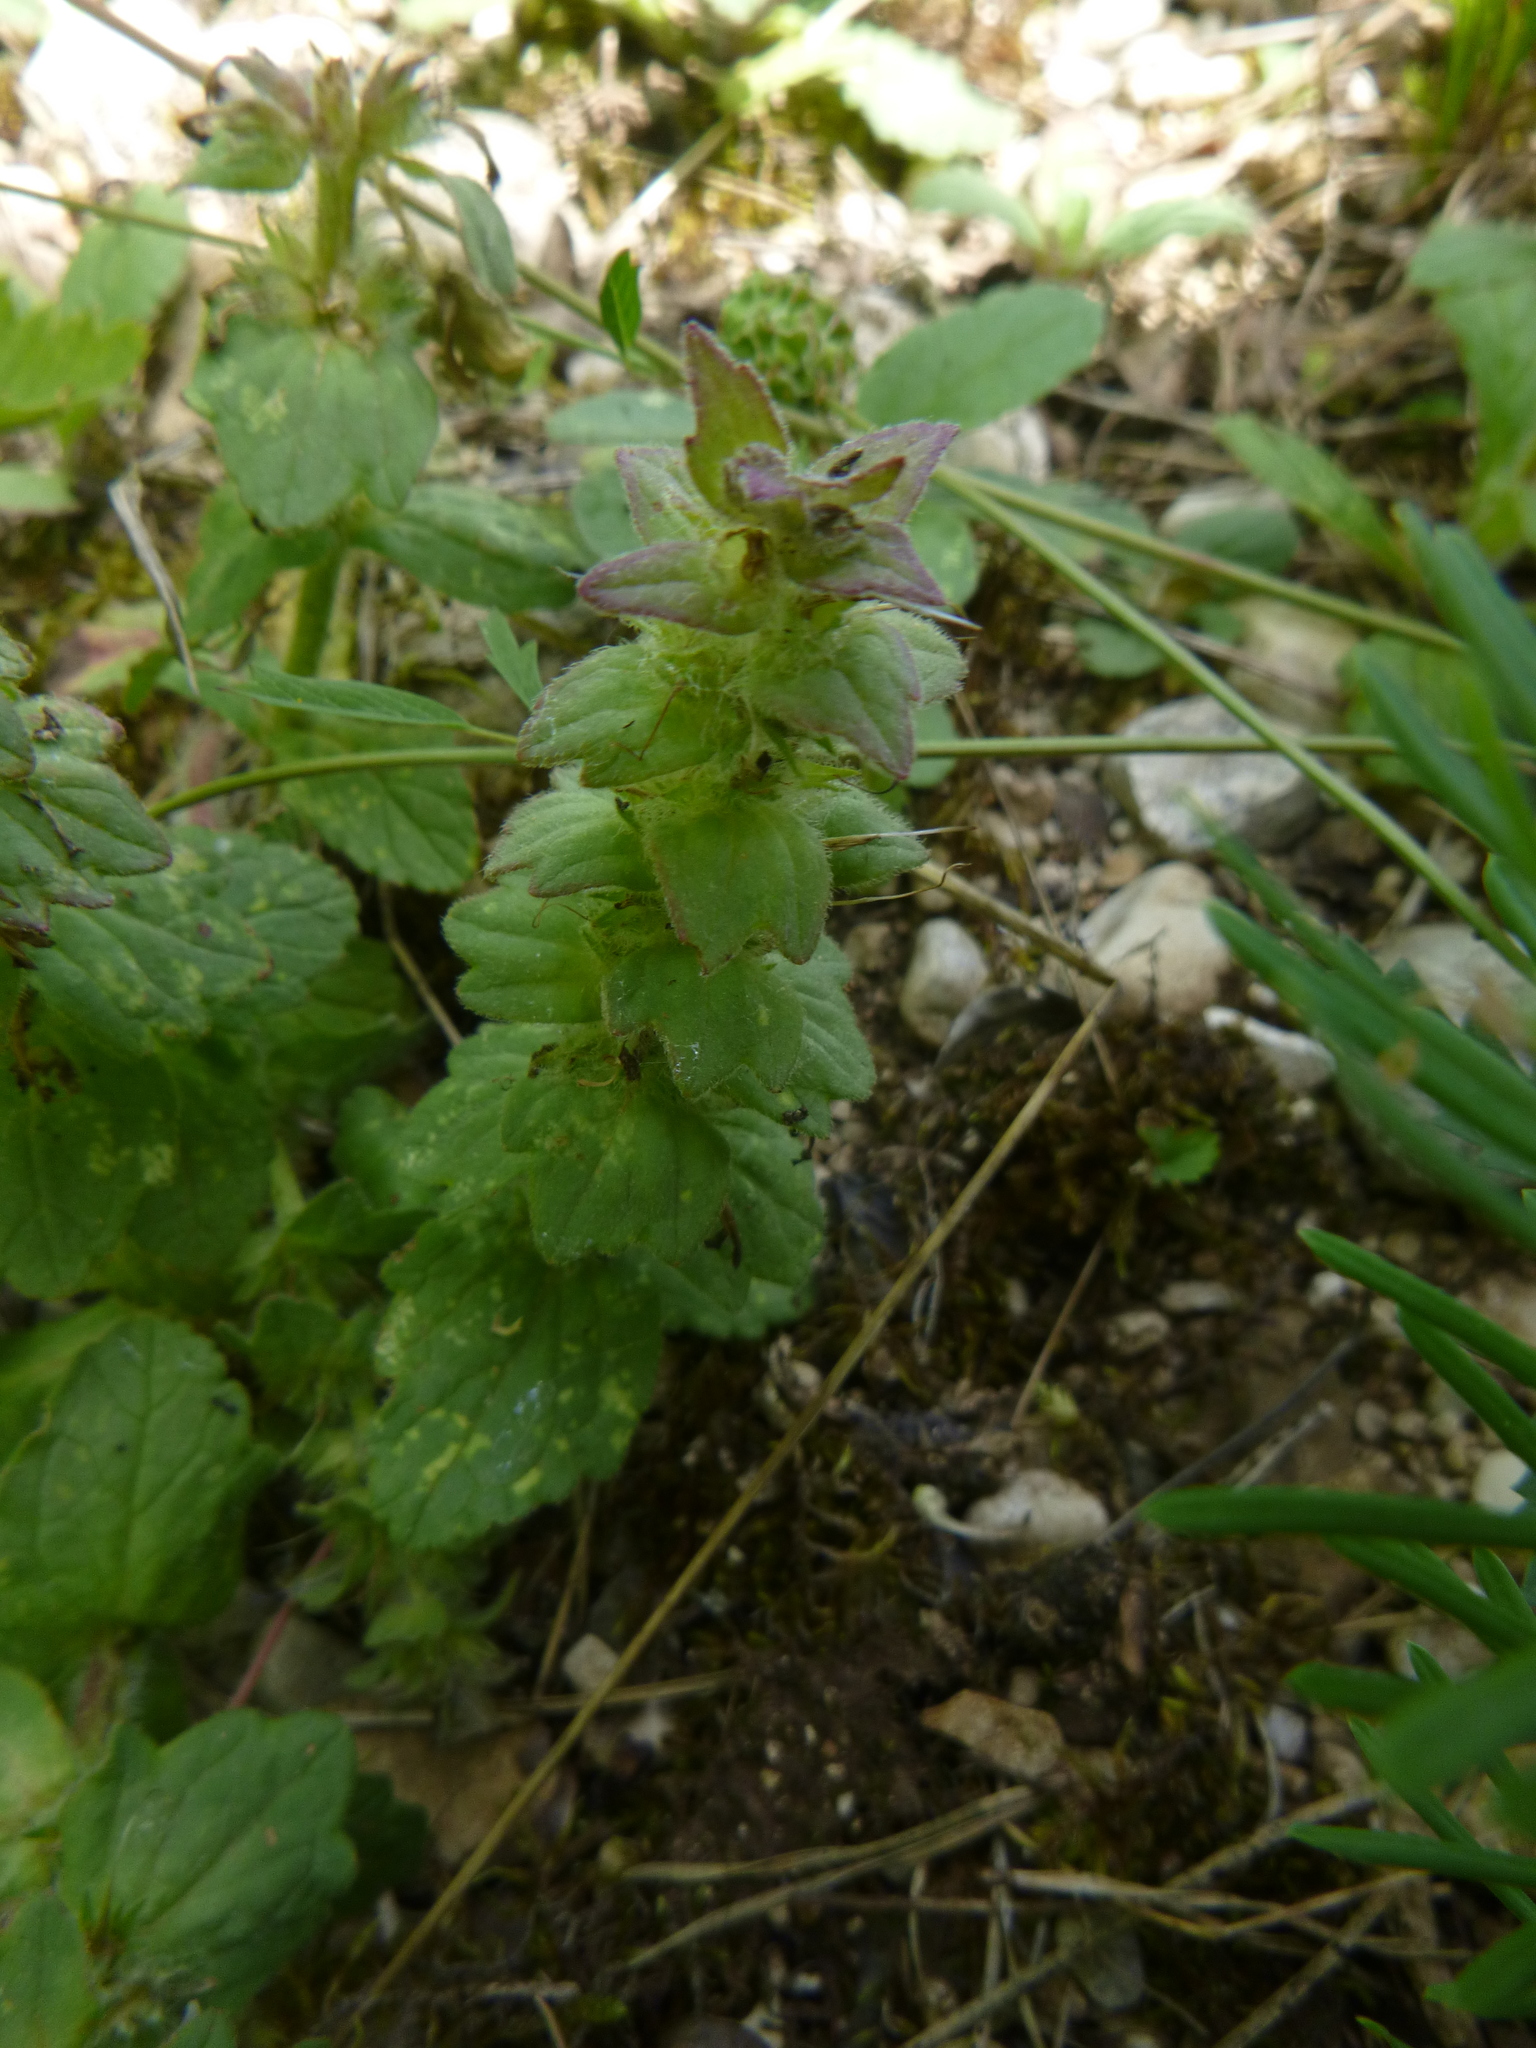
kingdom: Plantae
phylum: Tracheophyta
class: Magnoliopsida
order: Lamiales
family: Lamiaceae
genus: Ajuga
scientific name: Ajuga genevensis
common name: Blue bugle
